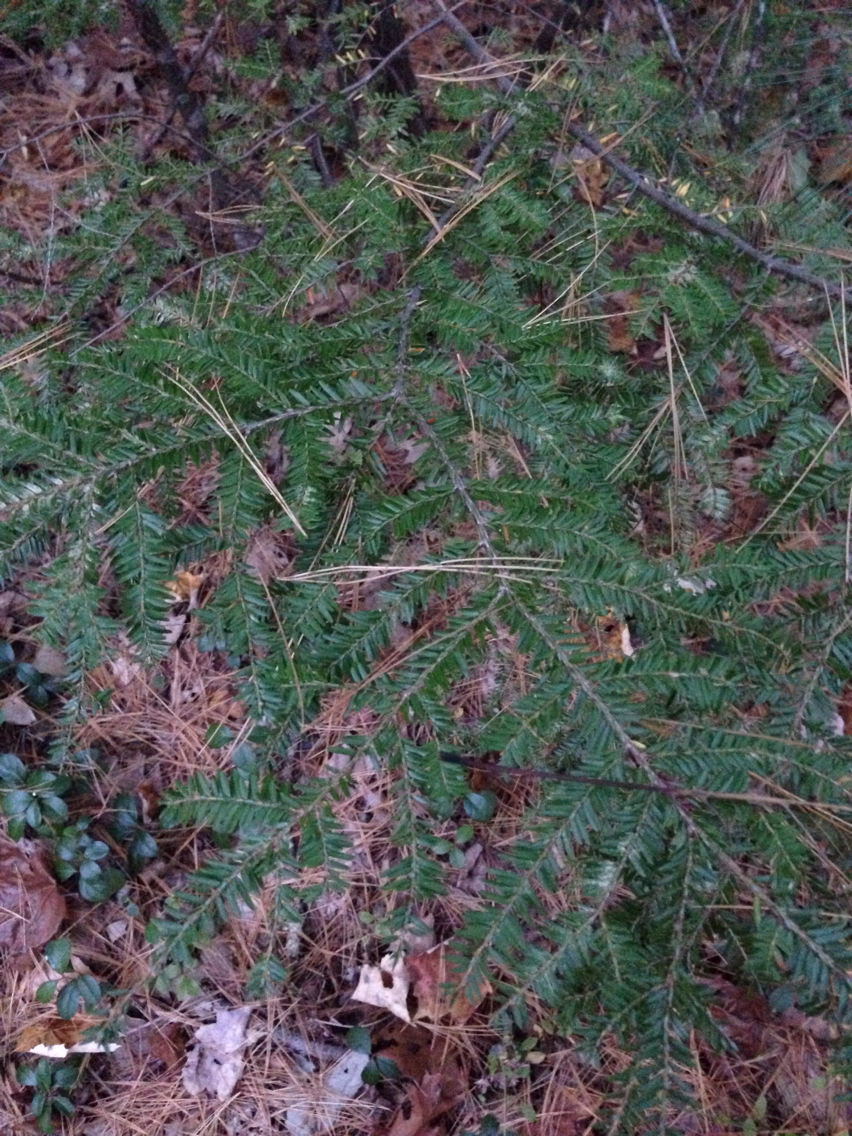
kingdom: Plantae
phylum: Tracheophyta
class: Pinopsida
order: Pinales
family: Pinaceae
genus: Tsuga
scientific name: Tsuga canadensis
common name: Eastern hemlock
